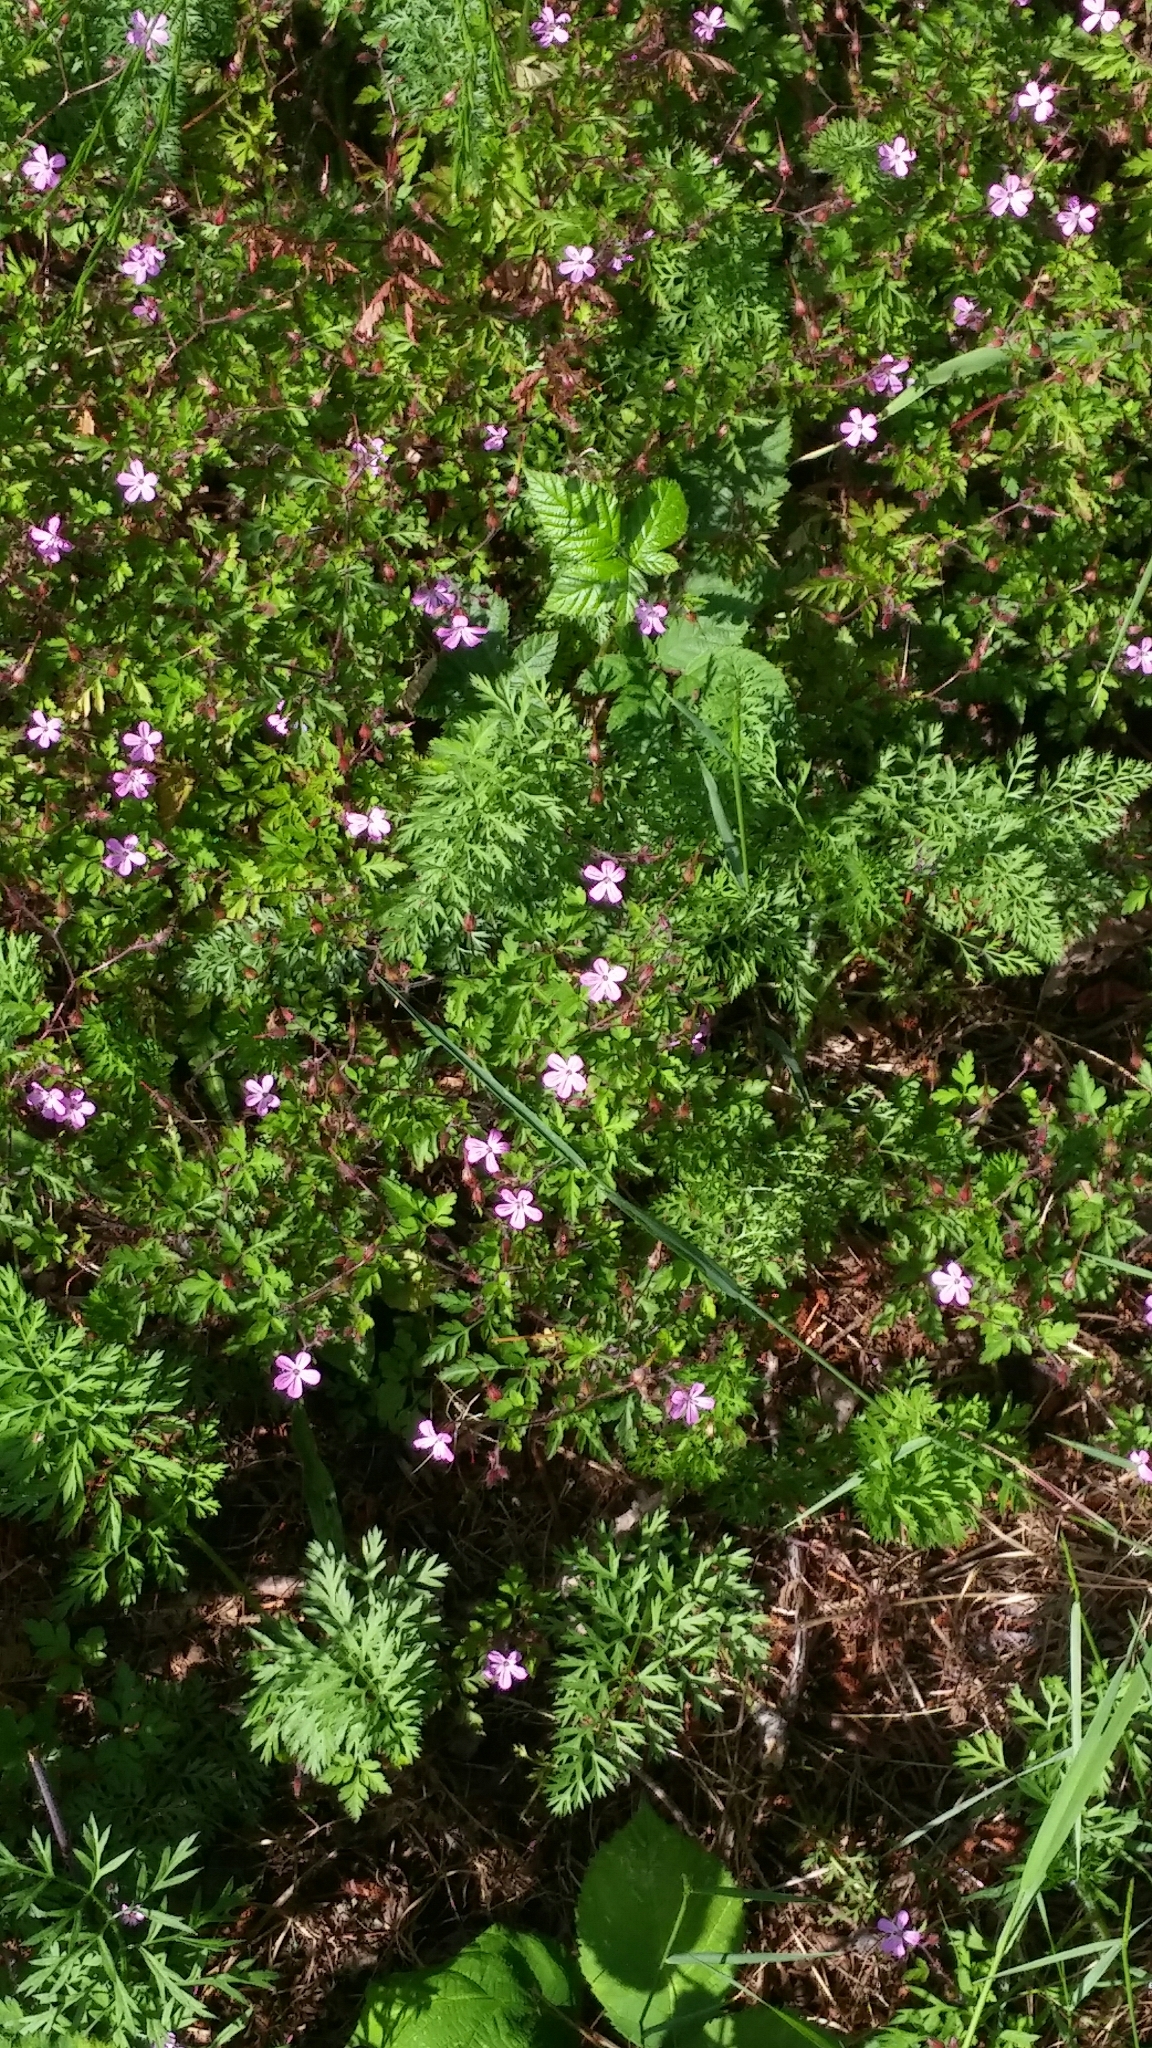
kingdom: Plantae
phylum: Tracheophyta
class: Magnoliopsida
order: Geraniales
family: Geraniaceae
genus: Geranium
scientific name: Geranium robertianum
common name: Herb-robert
